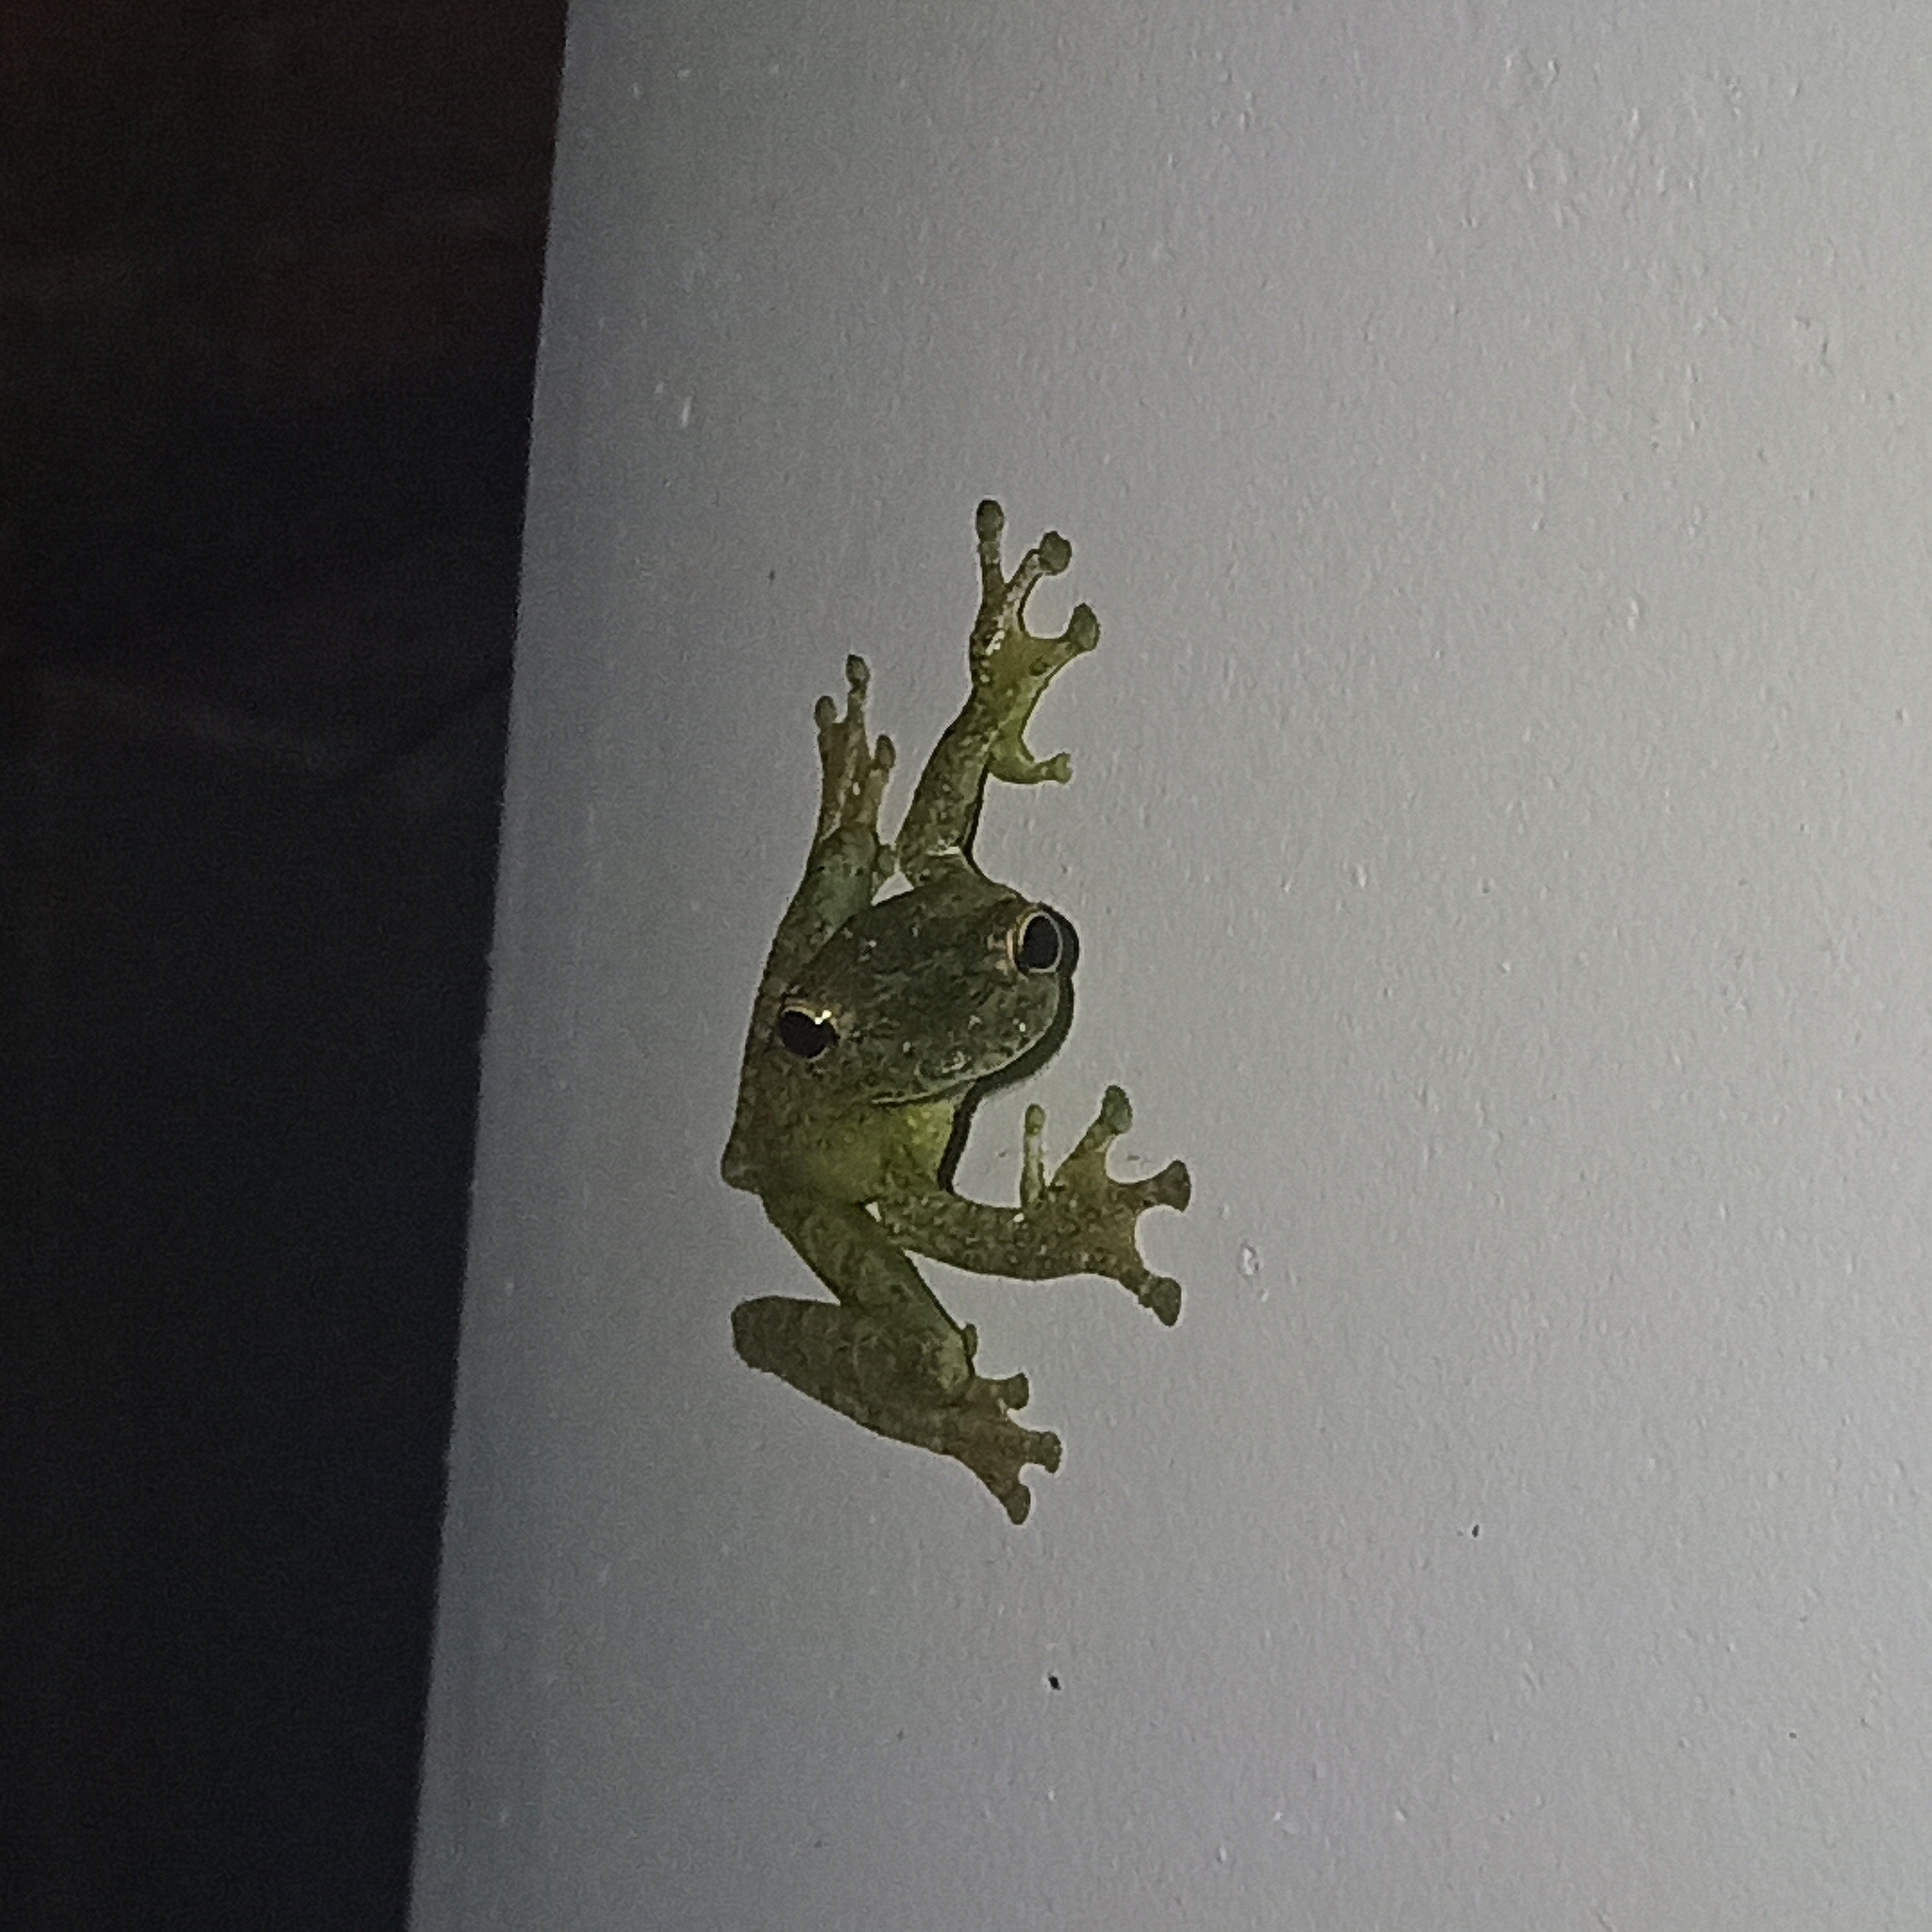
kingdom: Animalia
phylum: Chordata
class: Amphibia
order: Anura
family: Hylidae
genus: Itapotihyla
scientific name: Itapotihyla langsdorffii
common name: Ocellated treefrog
